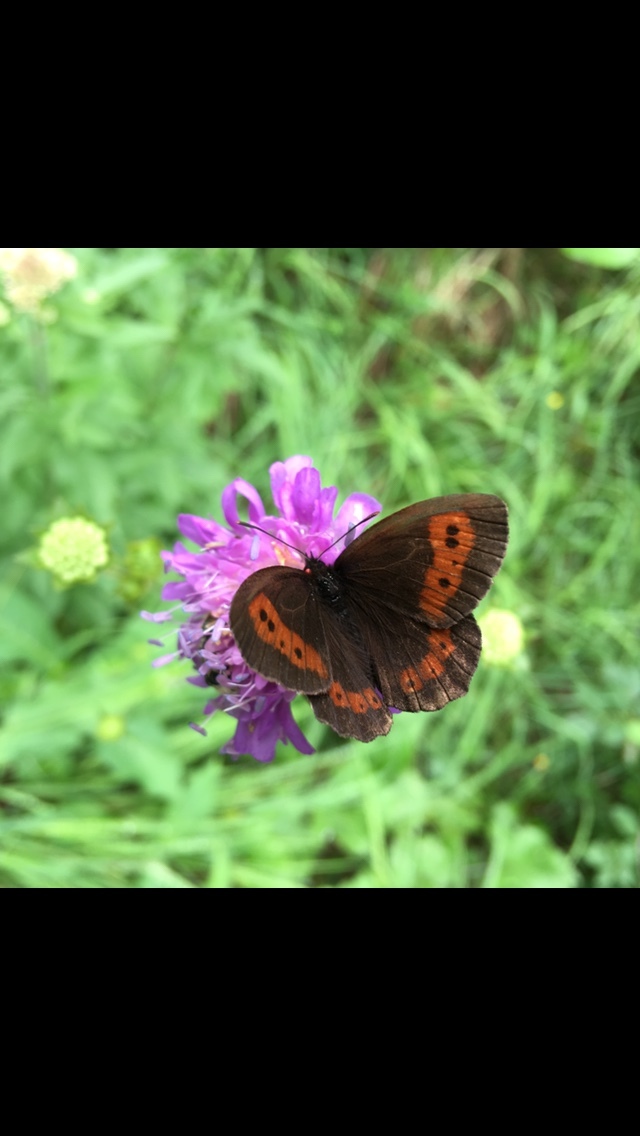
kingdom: Animalia
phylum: Arthropoda
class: Insecta
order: Lepidoptera
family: Nymphalidae
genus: Erebia
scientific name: Erebia ligea
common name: Arran brown
